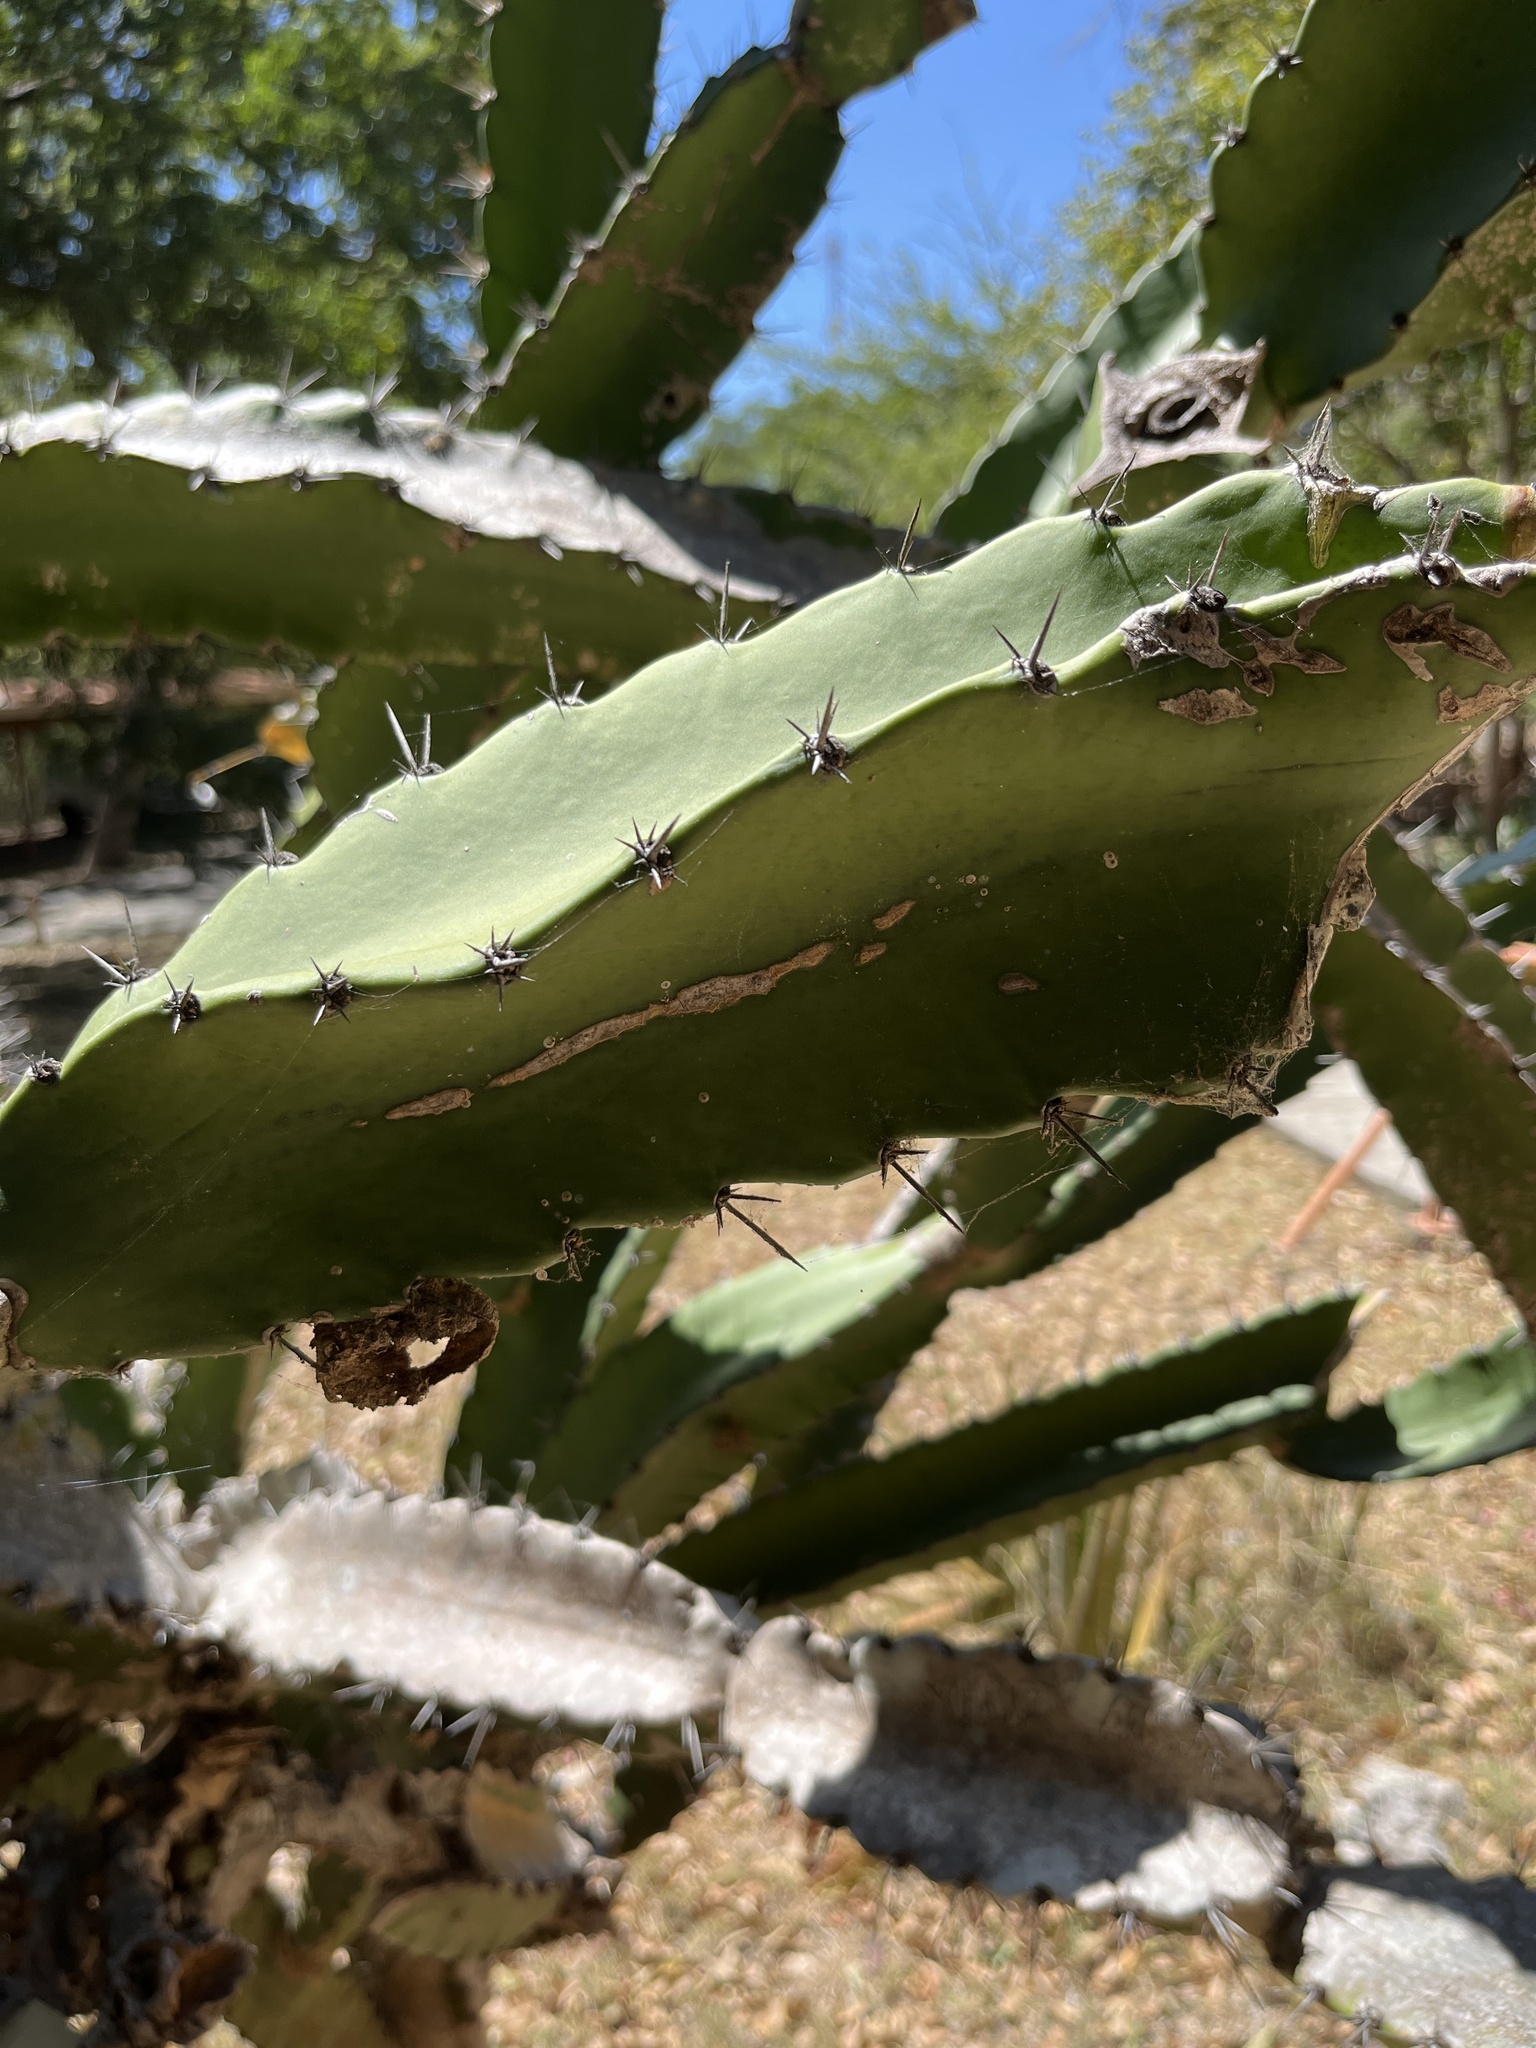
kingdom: Plantae
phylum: Tracheophyta
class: Magnoliopsida
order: Caryophyllales
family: Cactaceae
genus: Acanthocereus
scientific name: Acanthocereus tetragonus
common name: Triangle cactus
